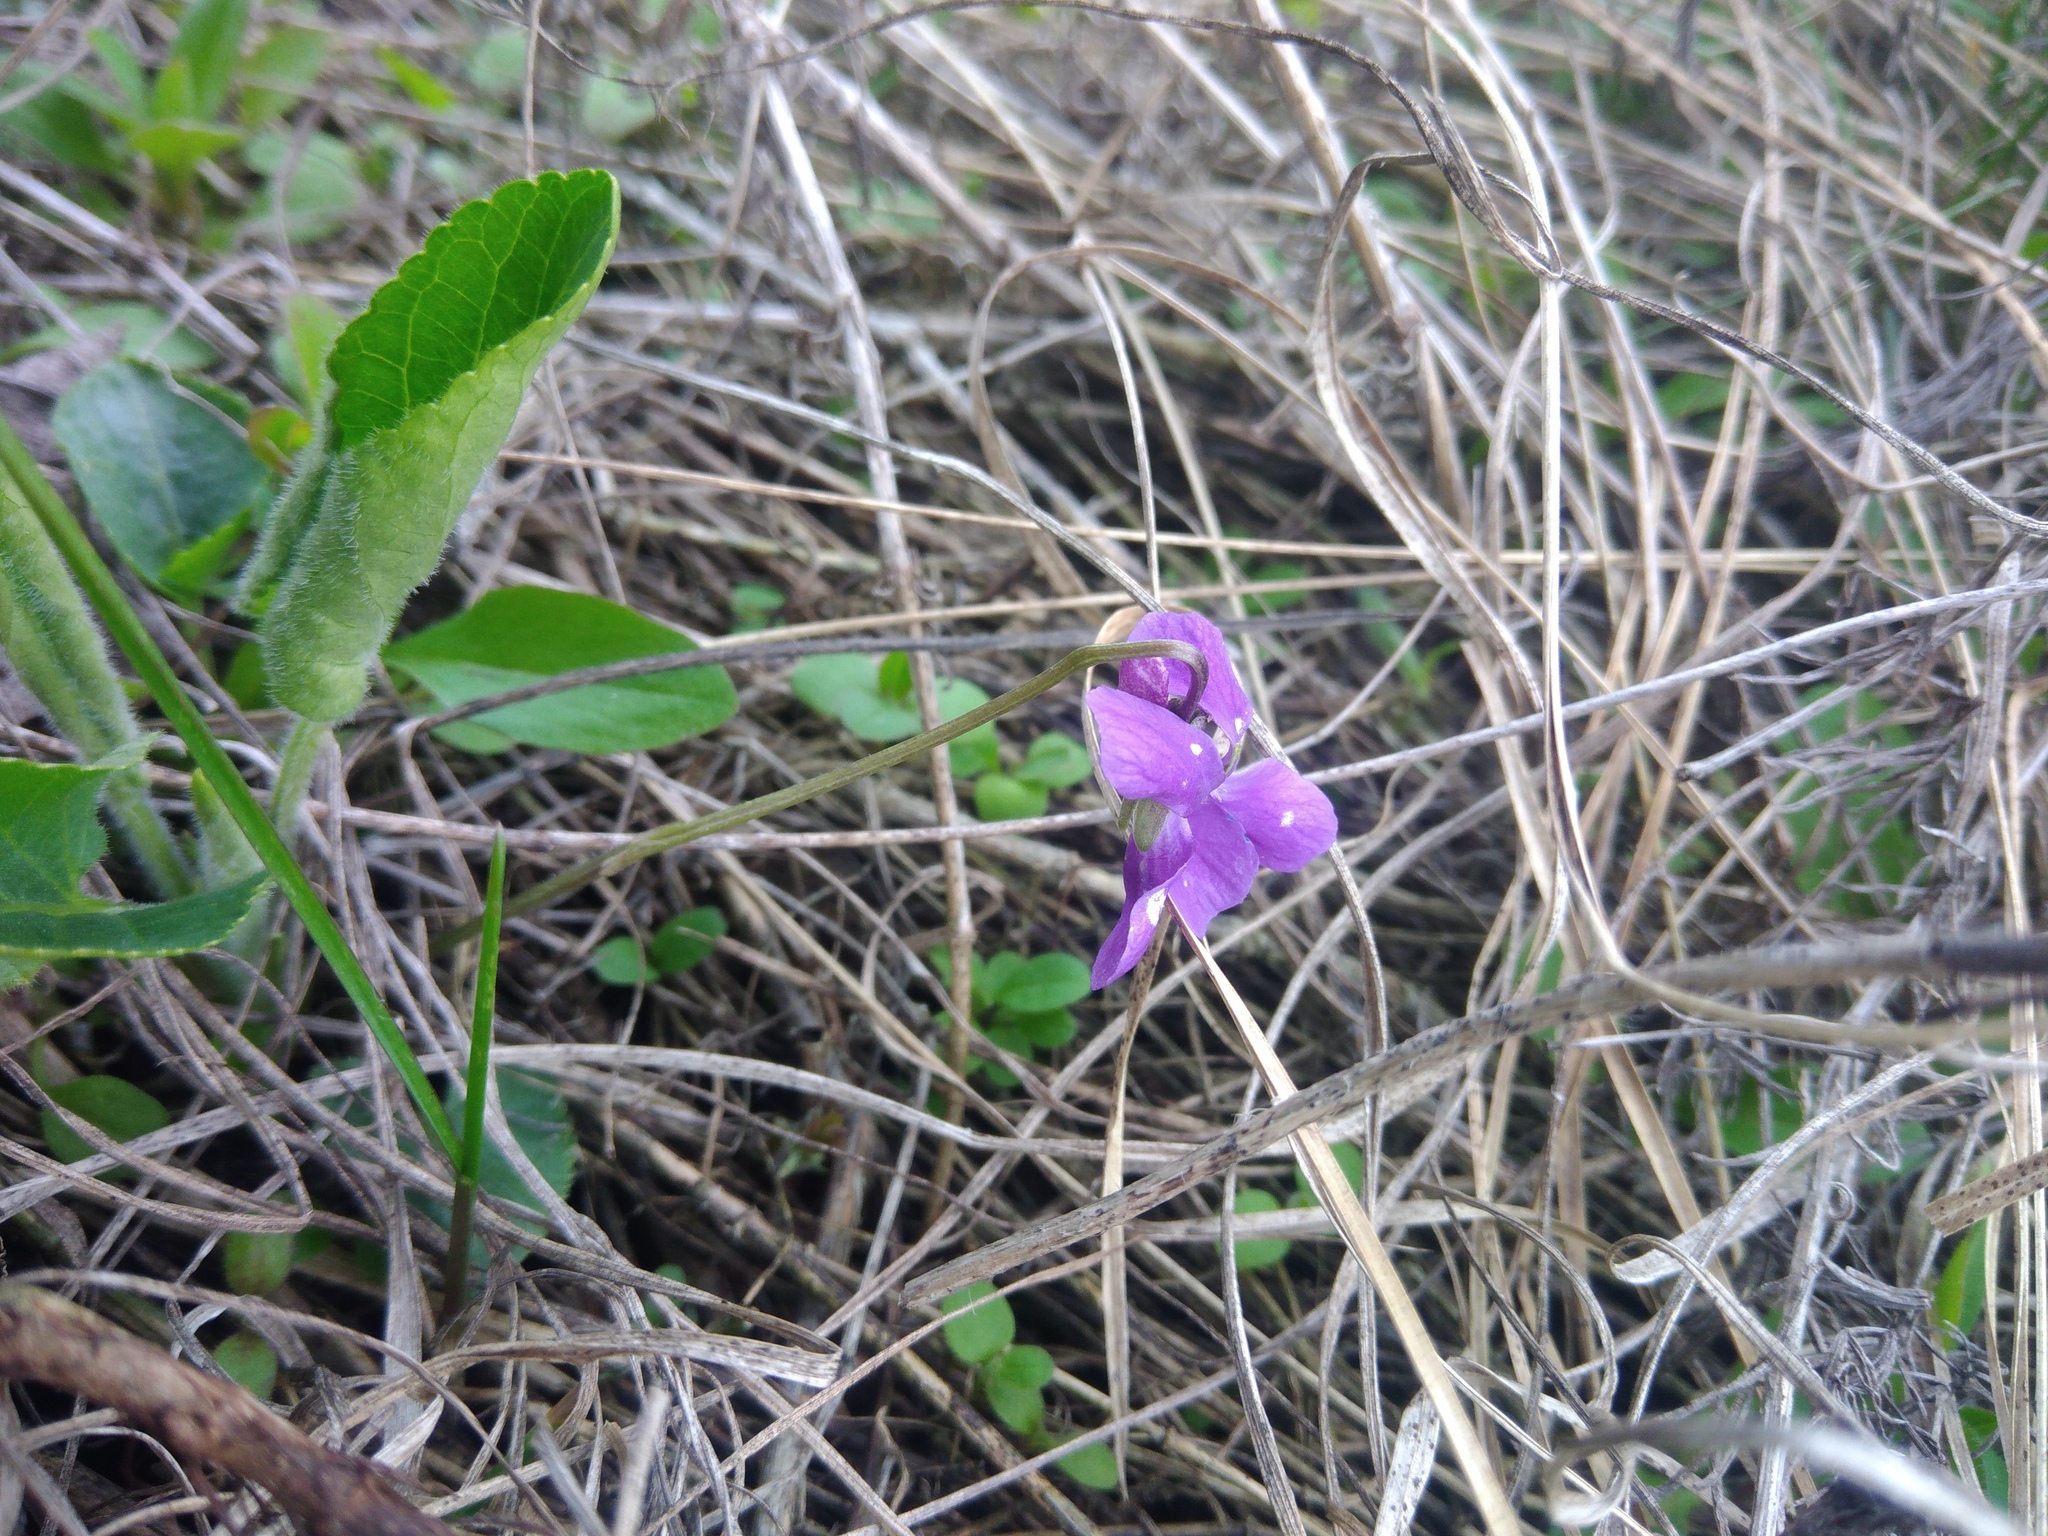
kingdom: Plantae
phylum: Tracheophyta
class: Magnoliopsida
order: Malpighiales
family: Violaceae
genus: Viola
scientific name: Viola hirta
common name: Hairy violet
